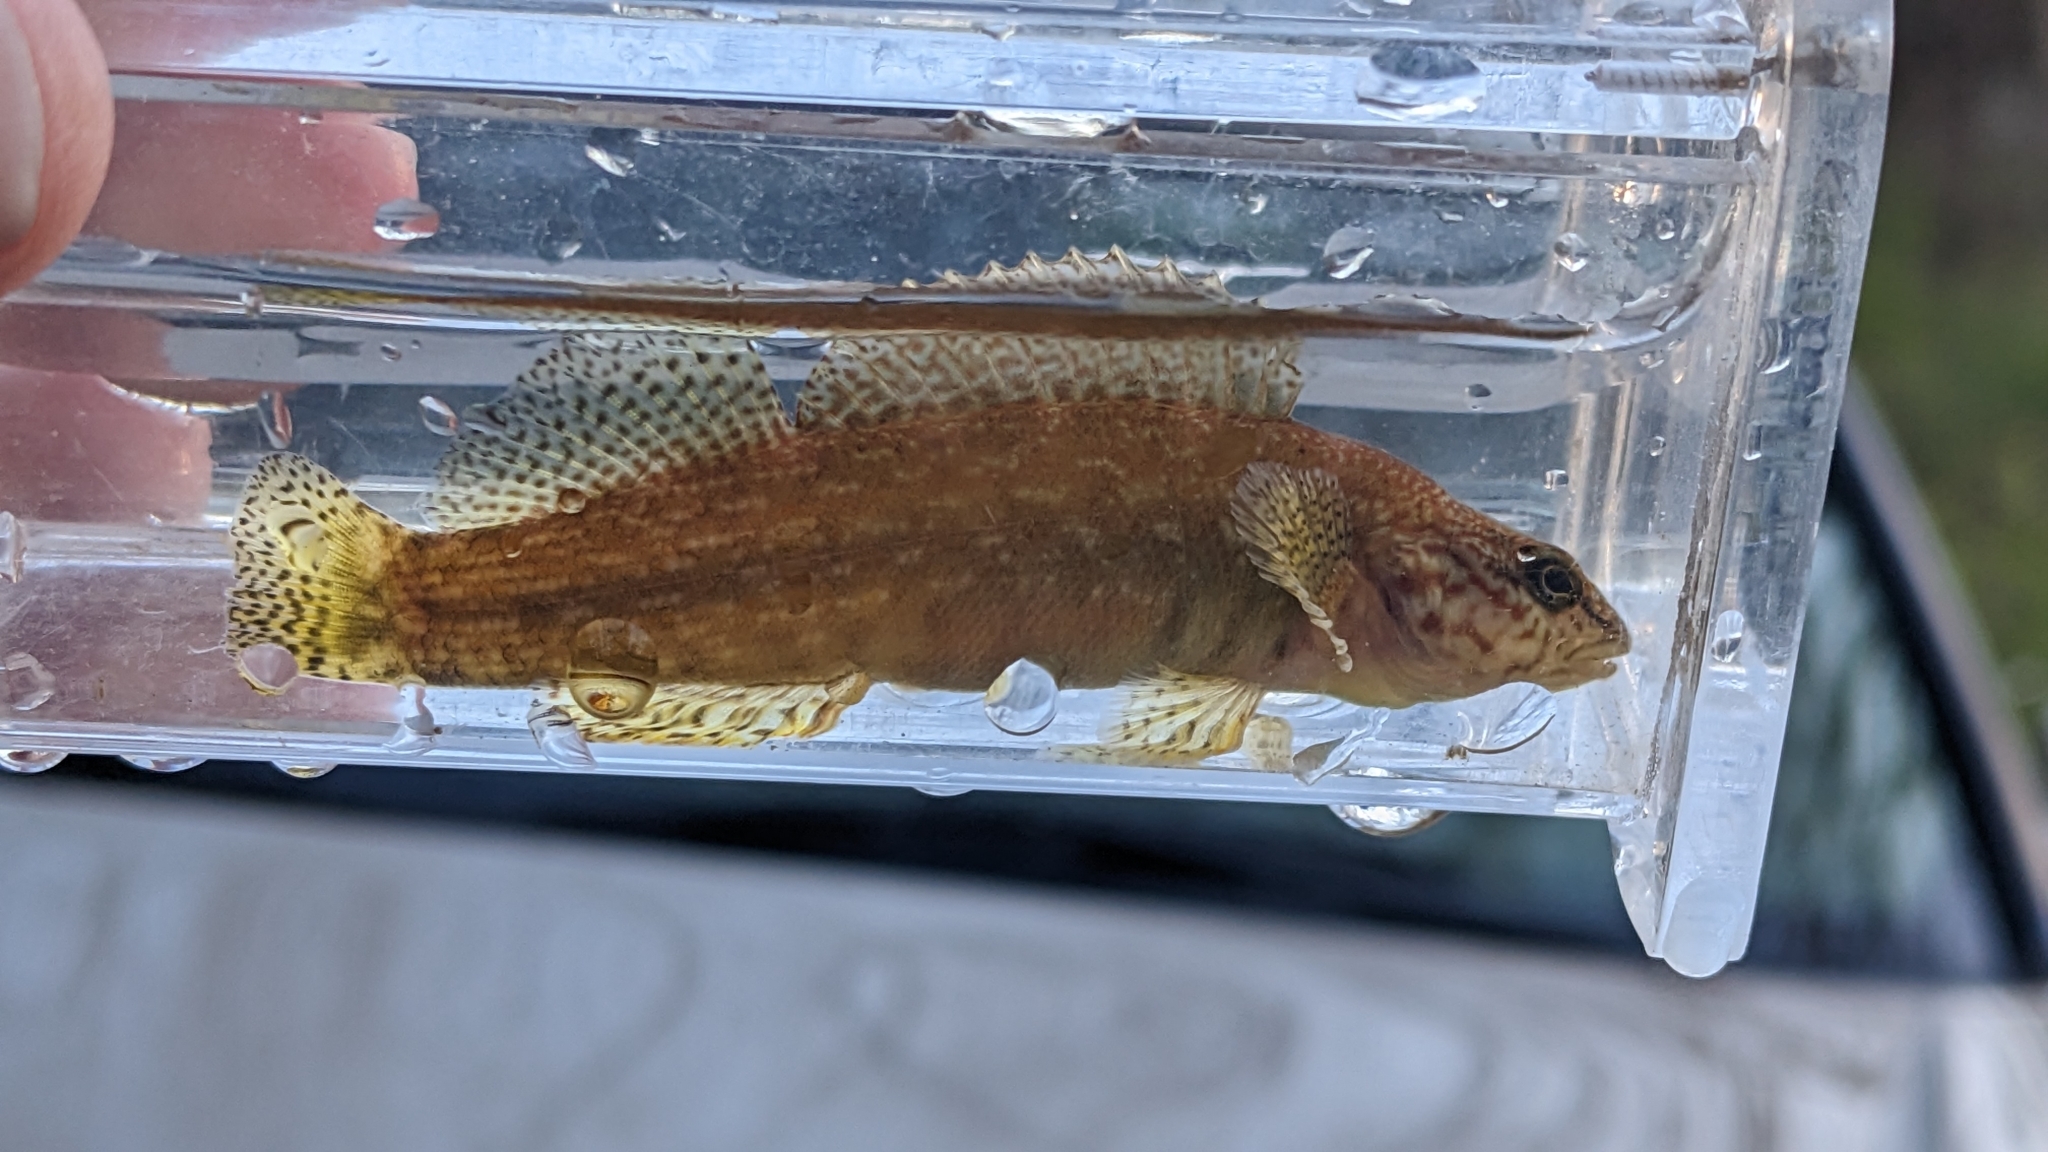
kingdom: Animalia
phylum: Chordata
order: Perciformes
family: Percidae
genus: Nothonotus
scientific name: Nothonotus aquali
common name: Coppercheek darter
